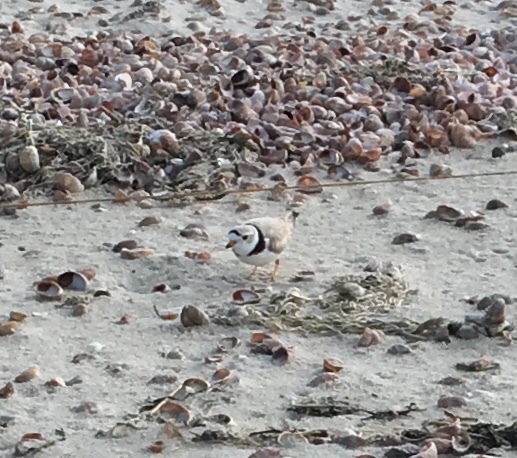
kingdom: Animalia
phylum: Chordata
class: Aves
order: Charadriiformes
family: Charadriidae
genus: Charadrius
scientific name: Charadrius melodus
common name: Piping plover
